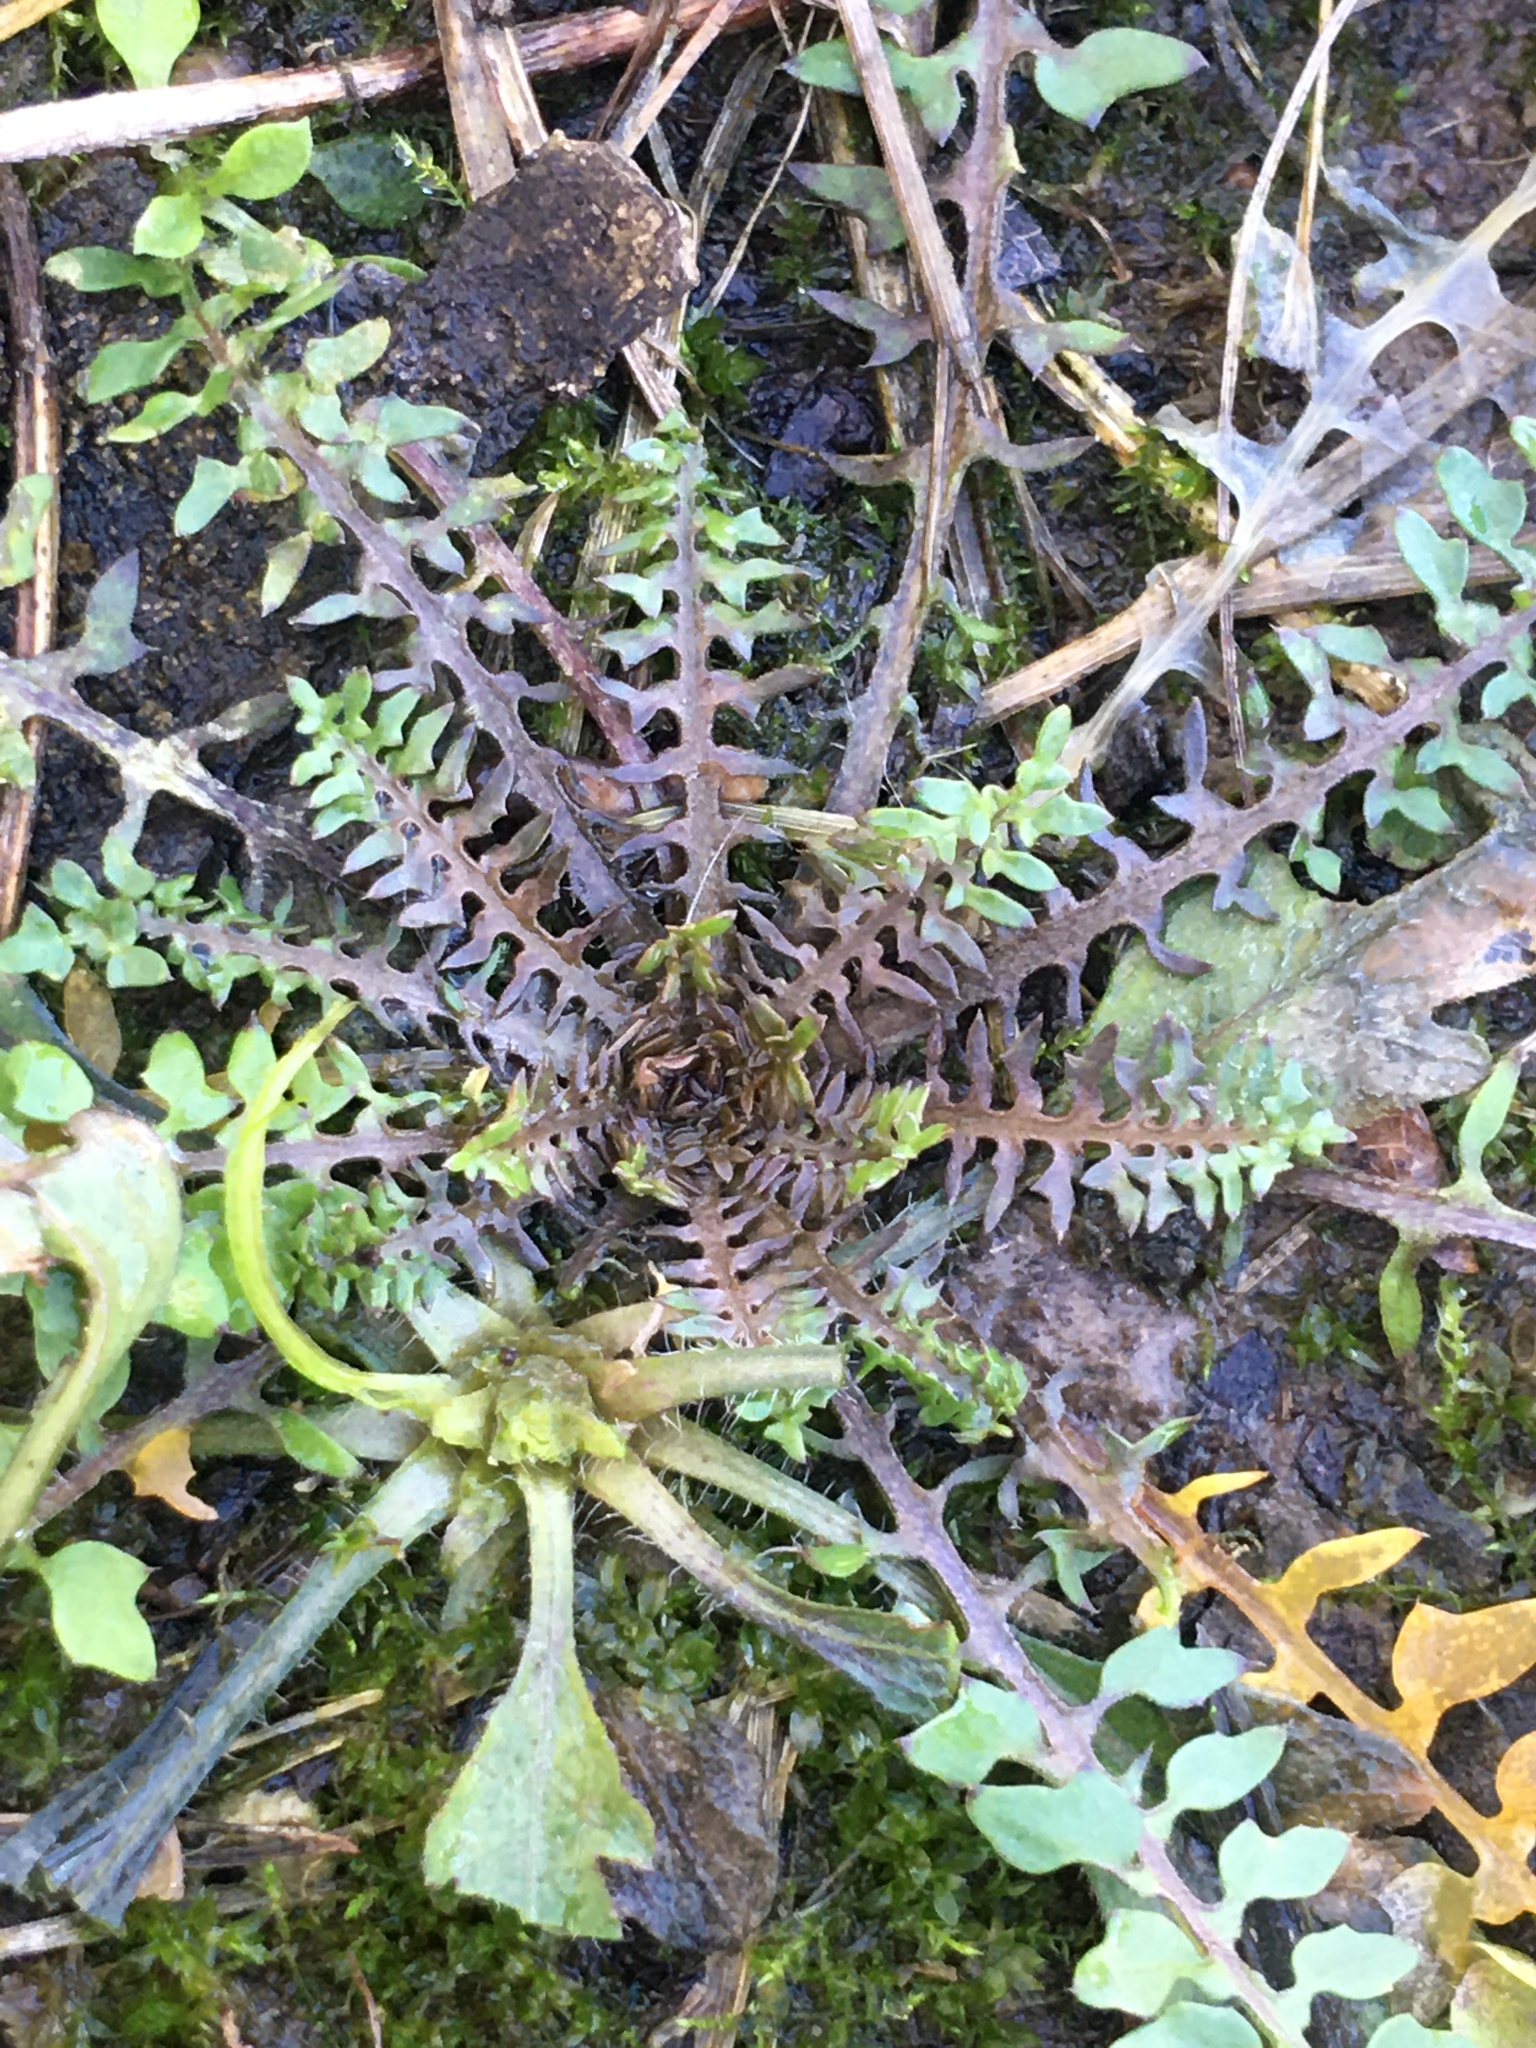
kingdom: Plantae
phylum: Tracheophyta
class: Magnoliopsida
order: Brassicales
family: Brassicaceae
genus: Planodes
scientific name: Planodes virginicum
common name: Virginia cress
